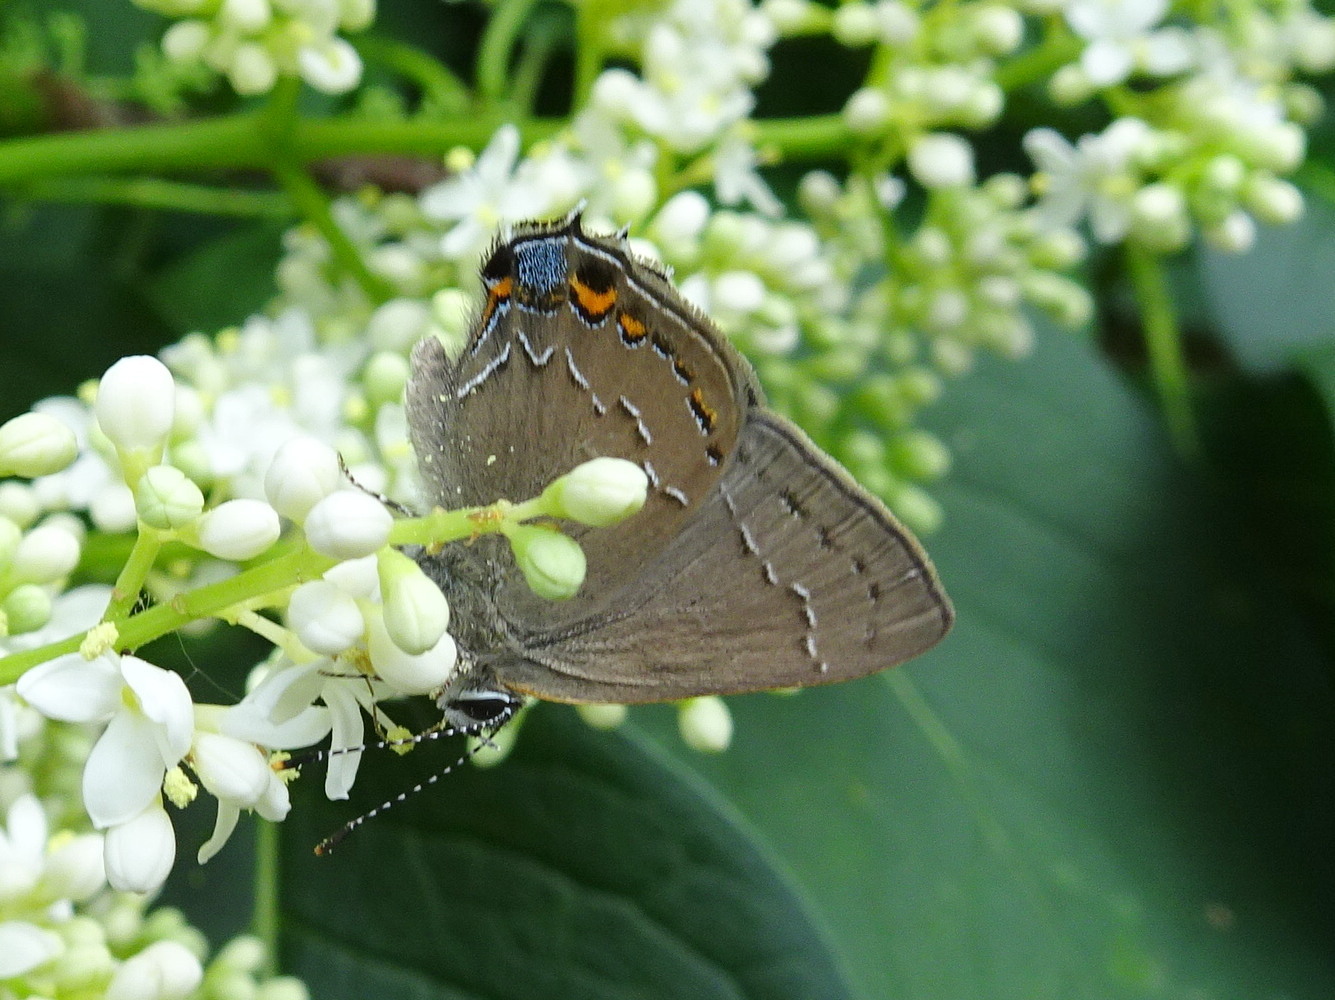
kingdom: Animalia
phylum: Arthropoda
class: Insecta
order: Lepidoptera
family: Lycaenidae
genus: Fixsenia
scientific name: Fixsenia ontario
